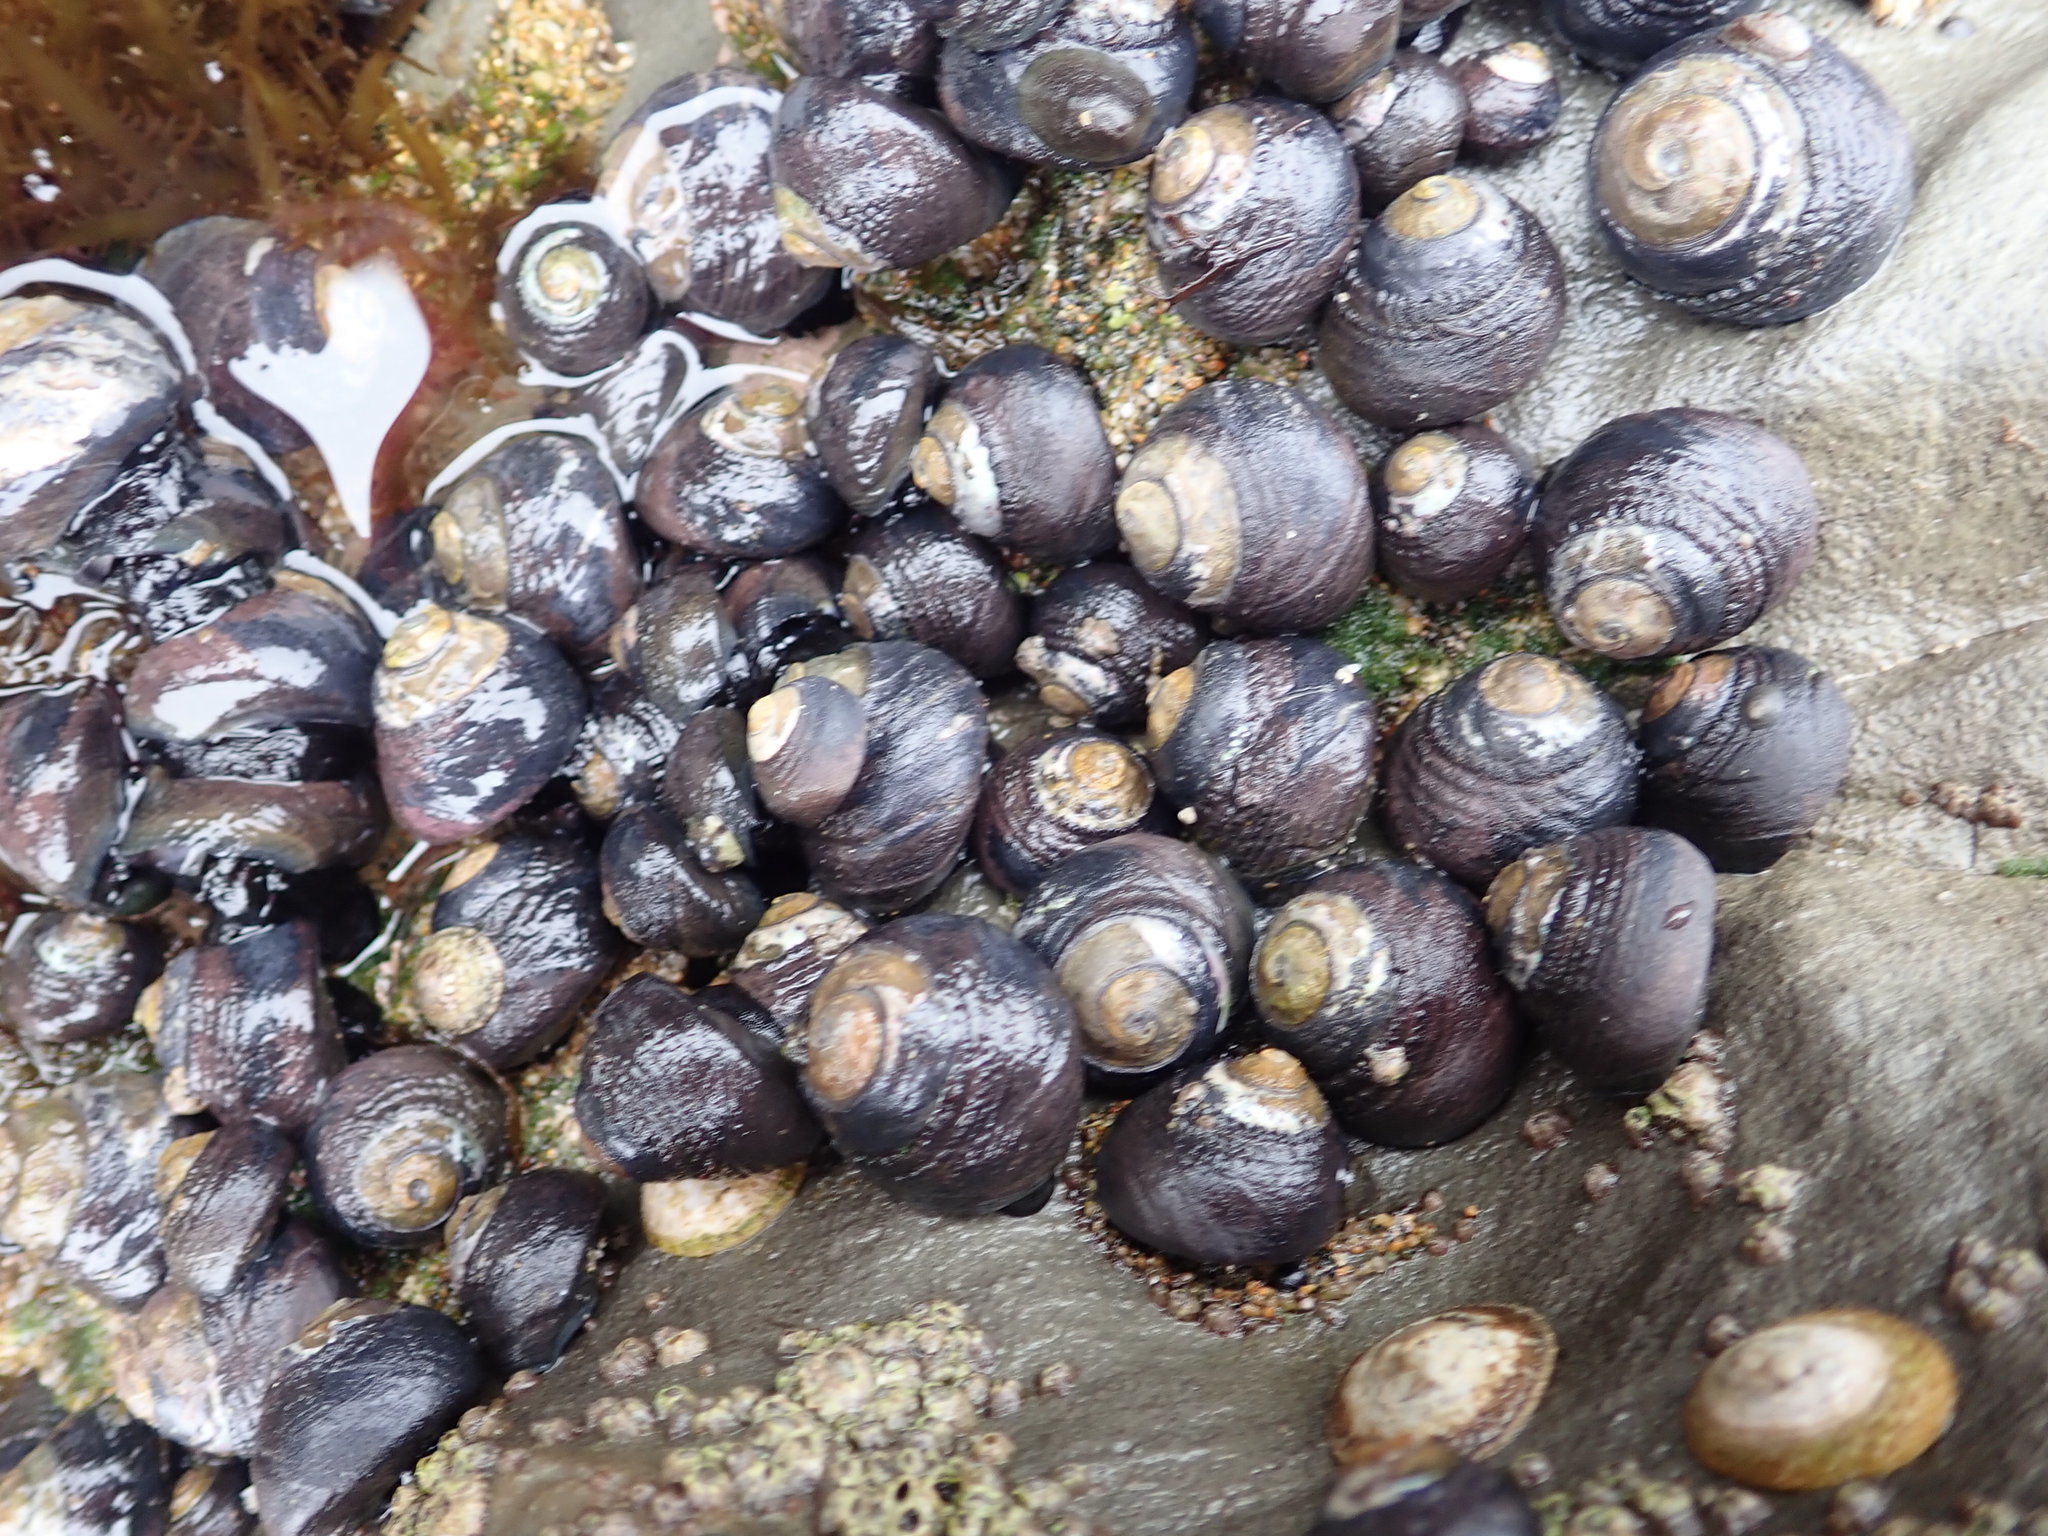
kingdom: Animalia
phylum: Mollusca
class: Gastropoda
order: Trochida
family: Tegulidae
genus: Tegula
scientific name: Tegula funebralis
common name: Black tegula
